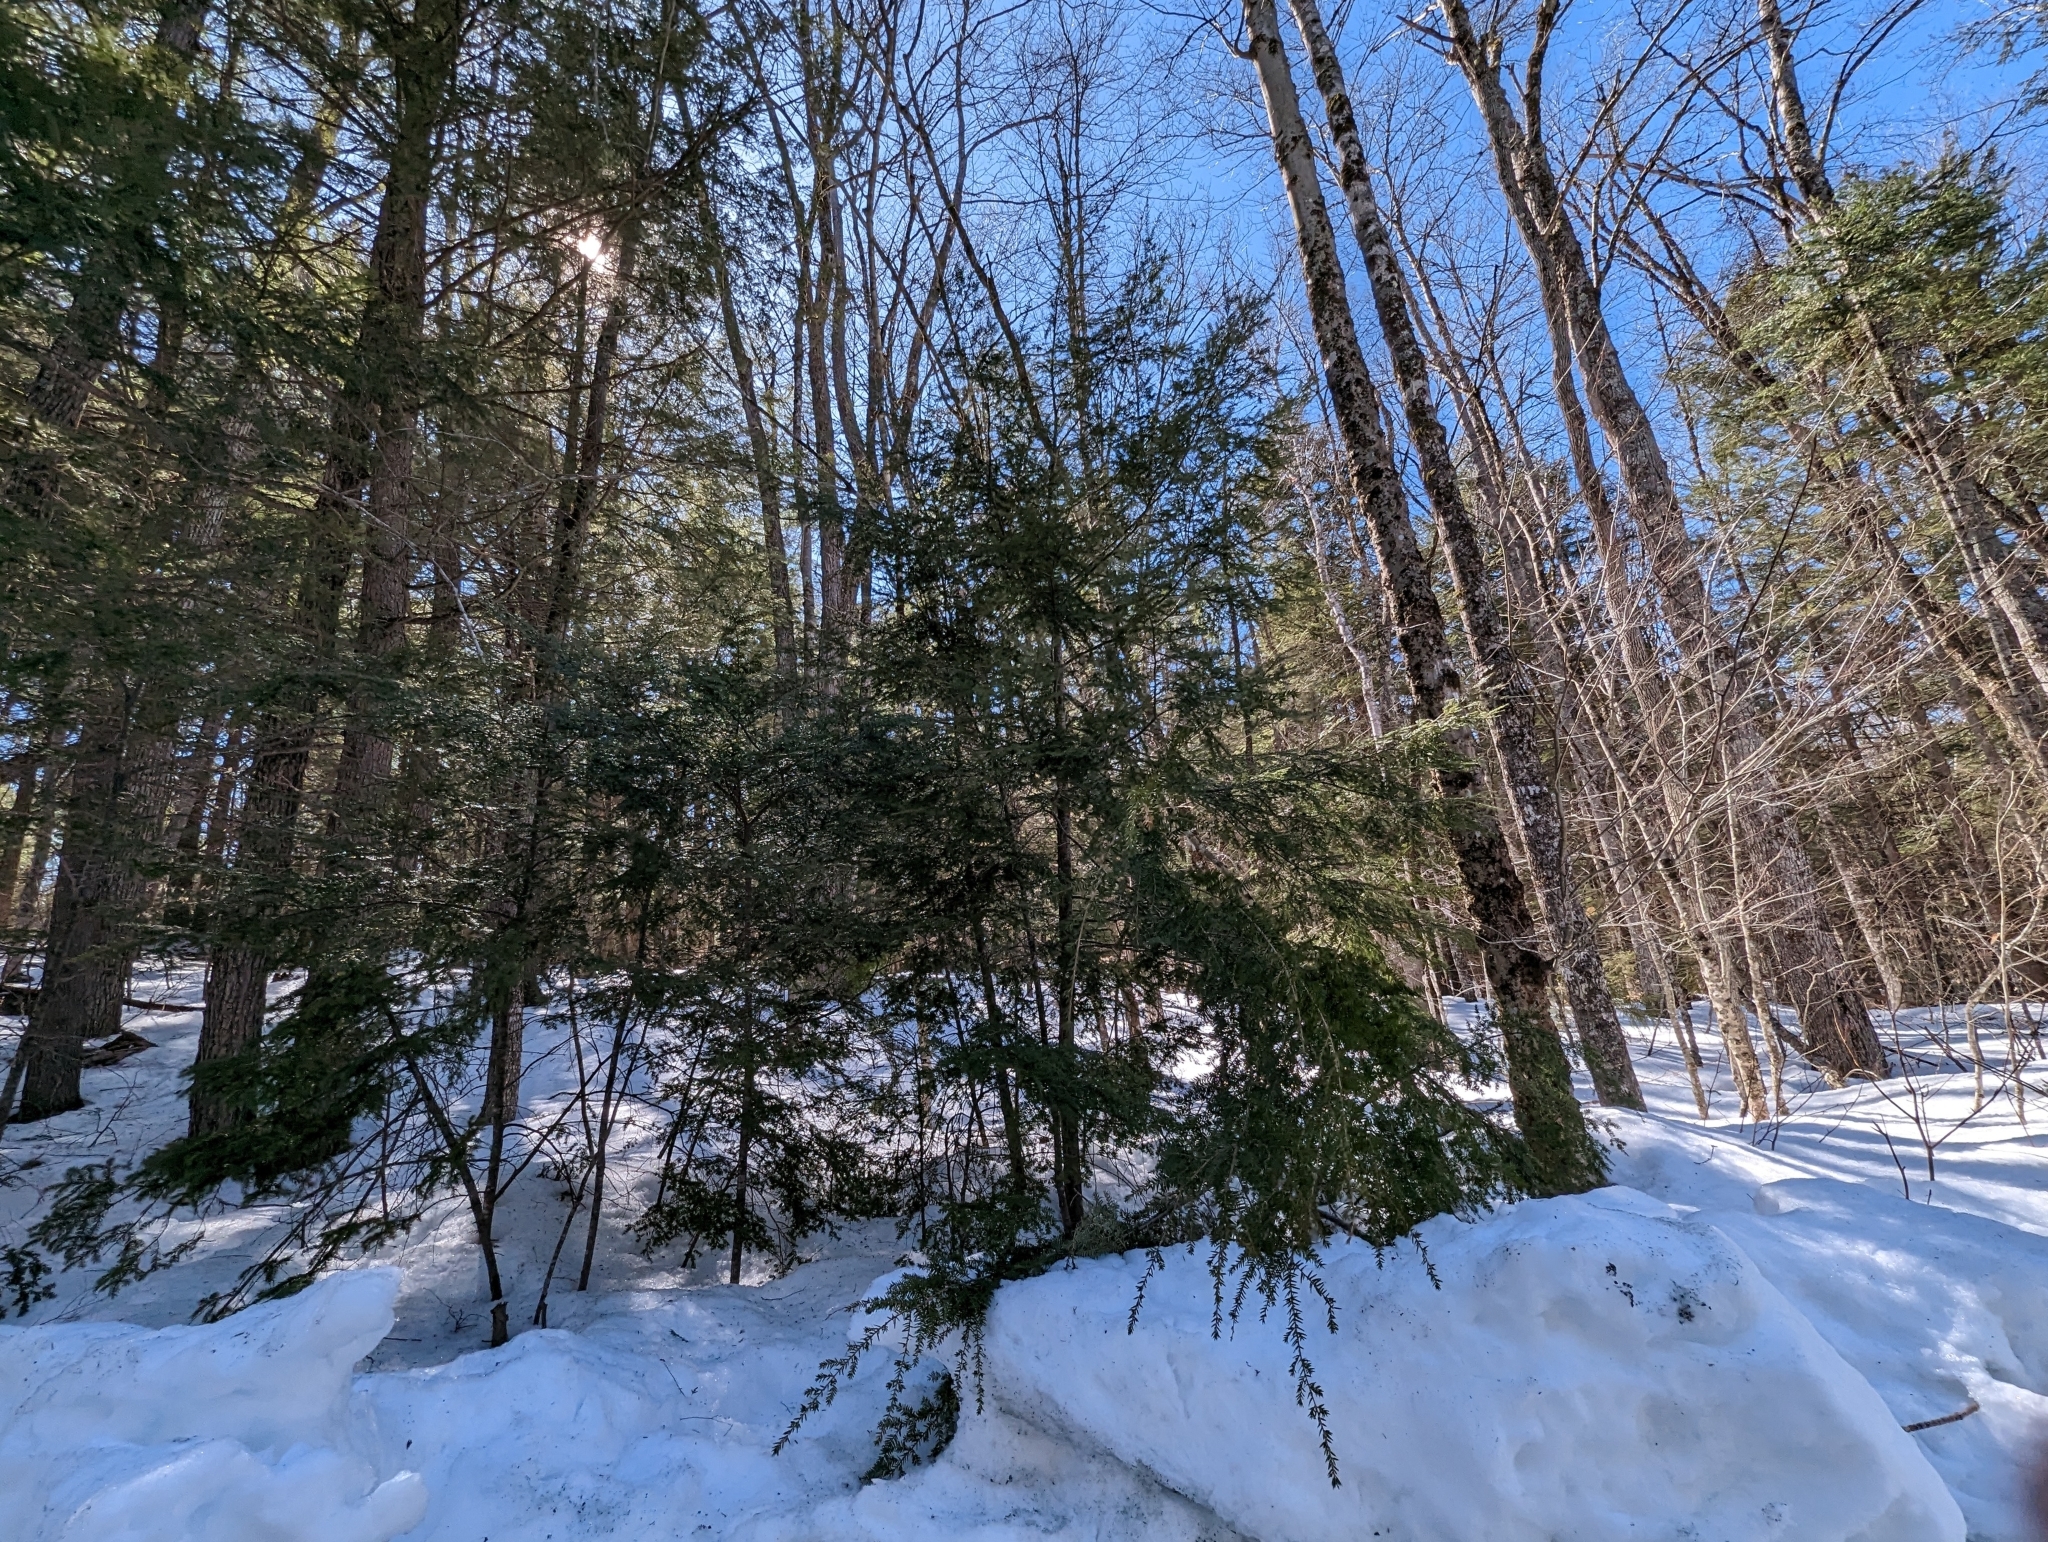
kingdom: Plantae
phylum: Tracheophyta
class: Pinopsida
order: Pinales
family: Pinaceae
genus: Tsuga
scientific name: Tsuga canadensis
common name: Eastern hemlock
